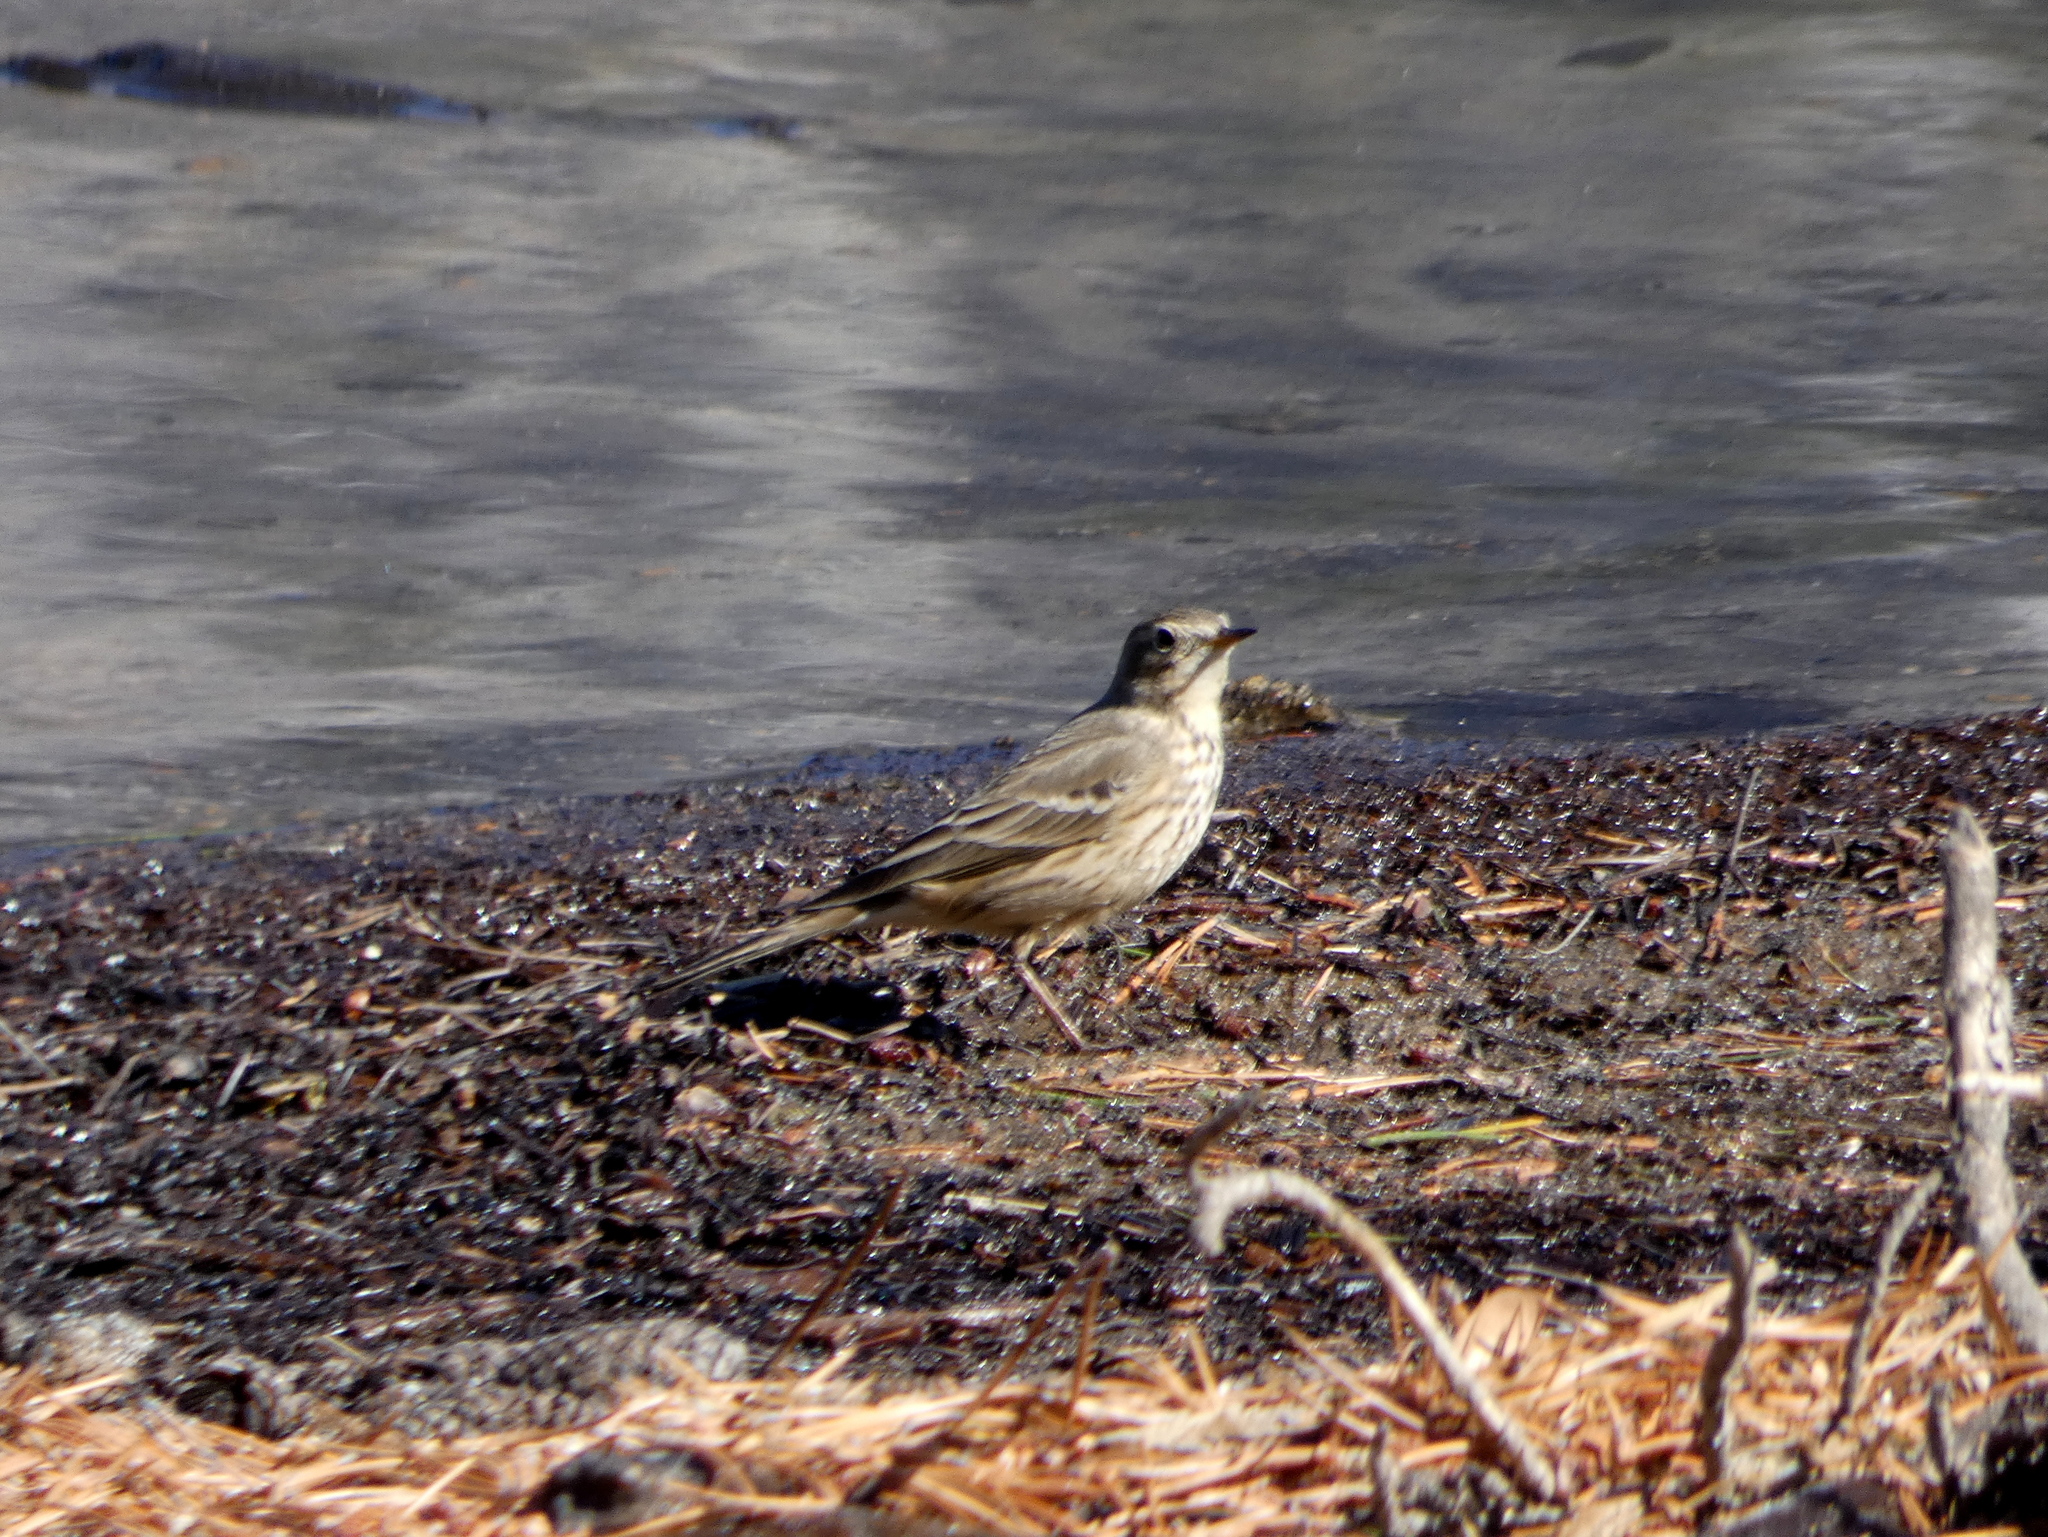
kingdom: Animalia
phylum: Chordata
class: Aves
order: Passeriformes
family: Motacillidae
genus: Anthus
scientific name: Anthus rubescens
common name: Buff-bellied pipit
